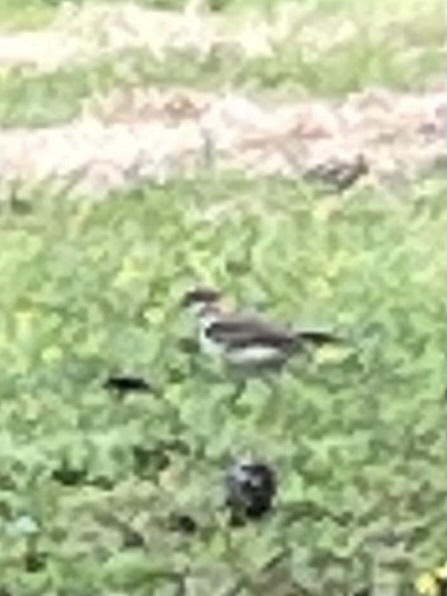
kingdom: Animalia
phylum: Chordata
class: Aves
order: Charadriiformes
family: Charadriidae
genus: Charadrius
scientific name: Charadrius vociferus
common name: Killdeer
